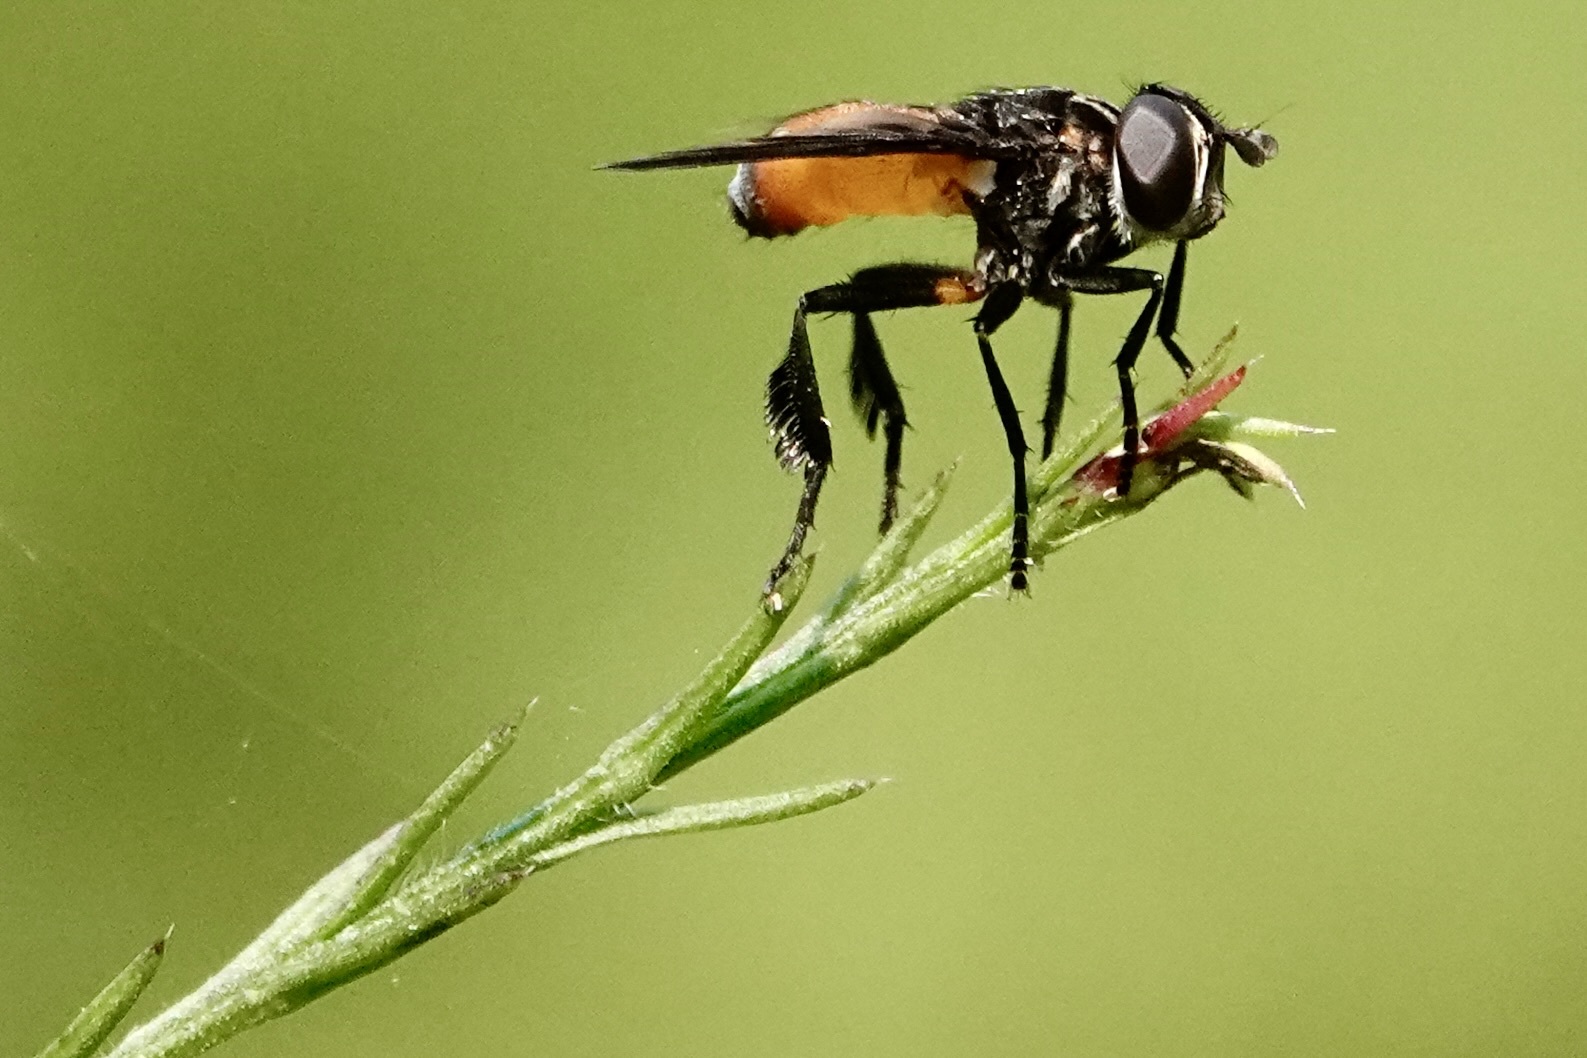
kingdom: Animalia
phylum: Arthropoda
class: Insecta
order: Diptera
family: Tachinidae
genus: Trichopoda
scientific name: Trichopoda pennipes
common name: Tachinid fly
